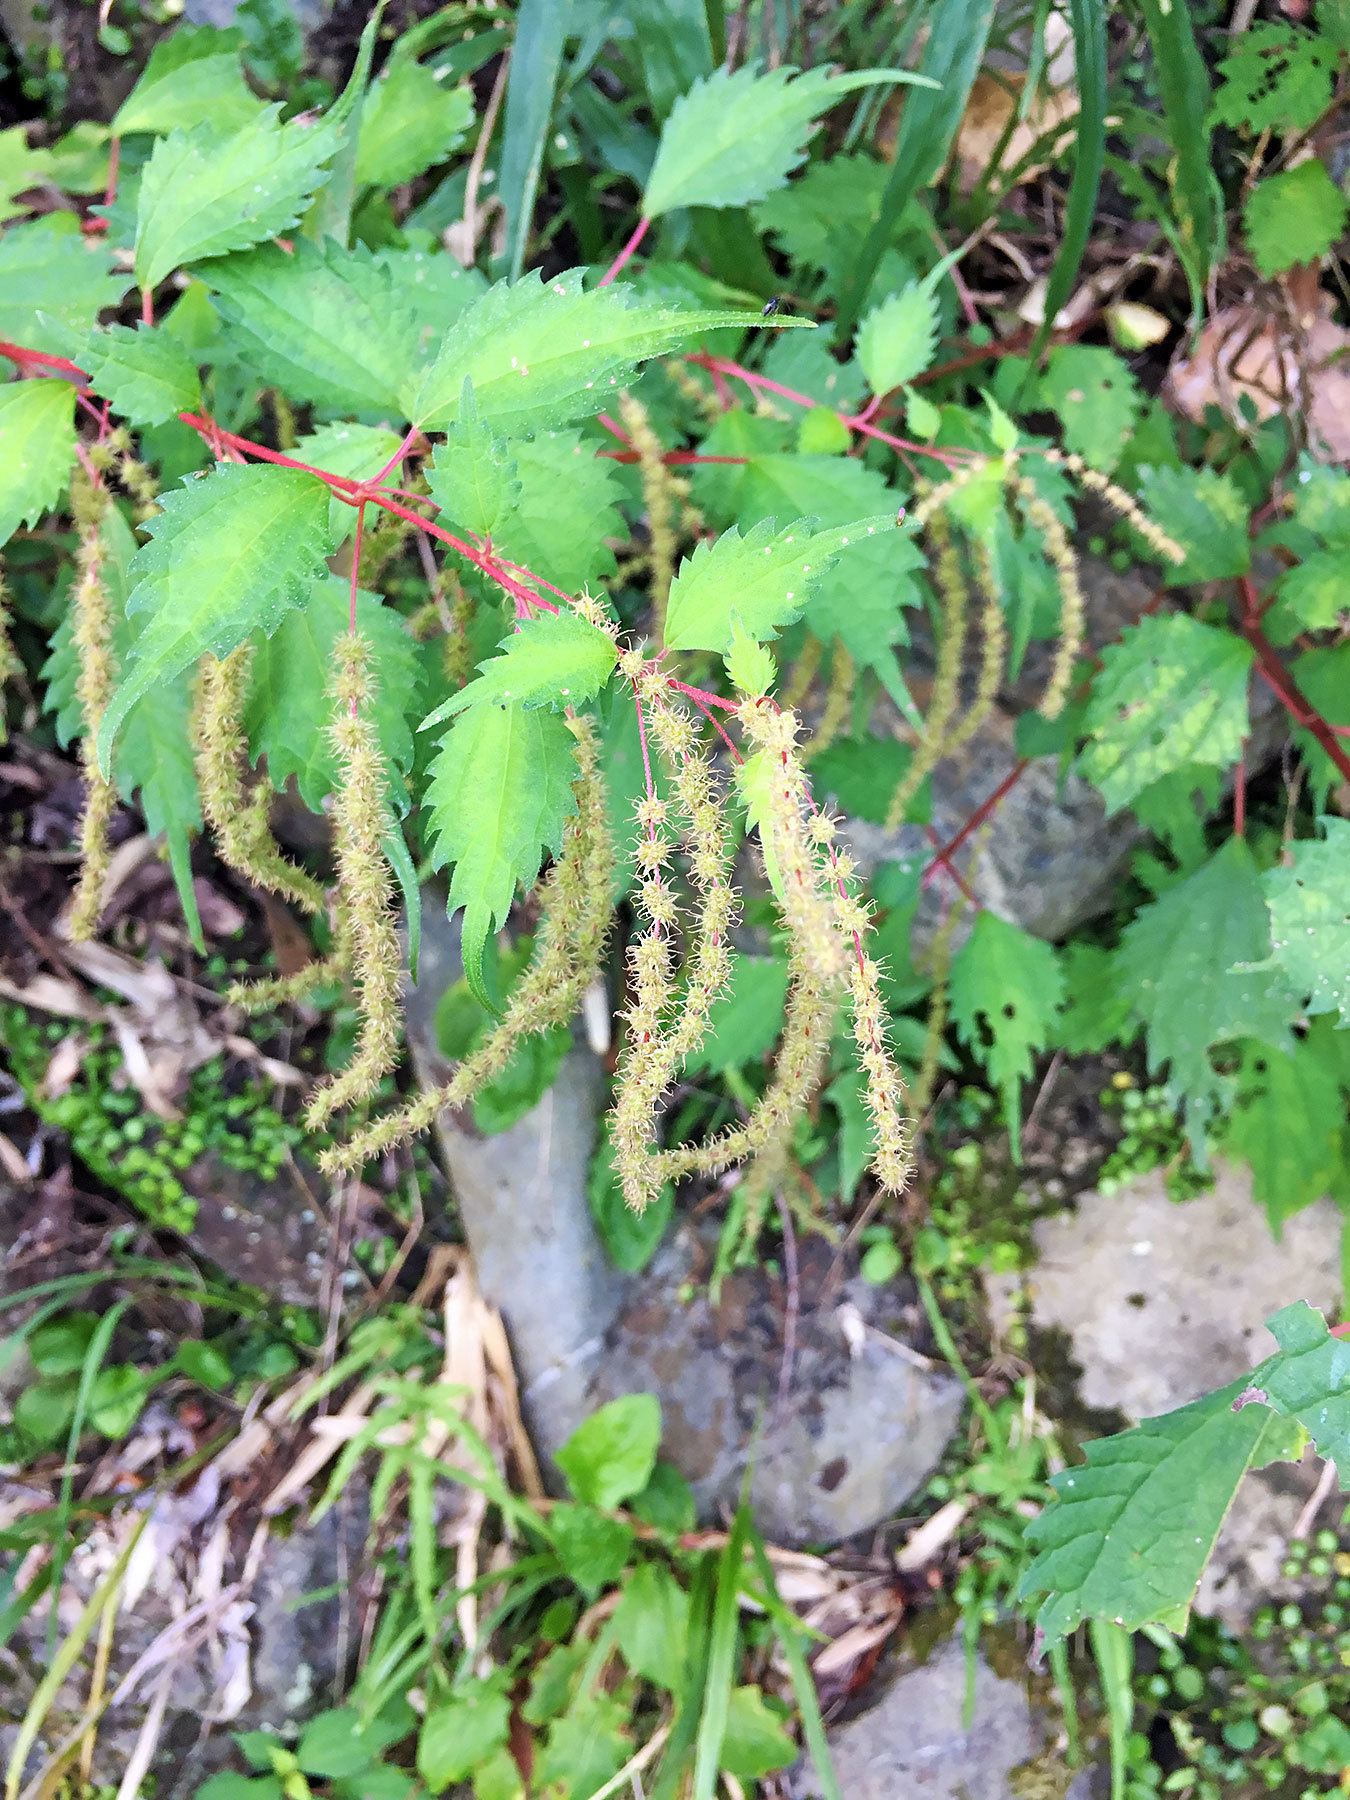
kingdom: Plantae
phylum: Tracheophyta
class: Magnoliopsida
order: Rosales
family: Urticaceae
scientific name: Urticaceae
